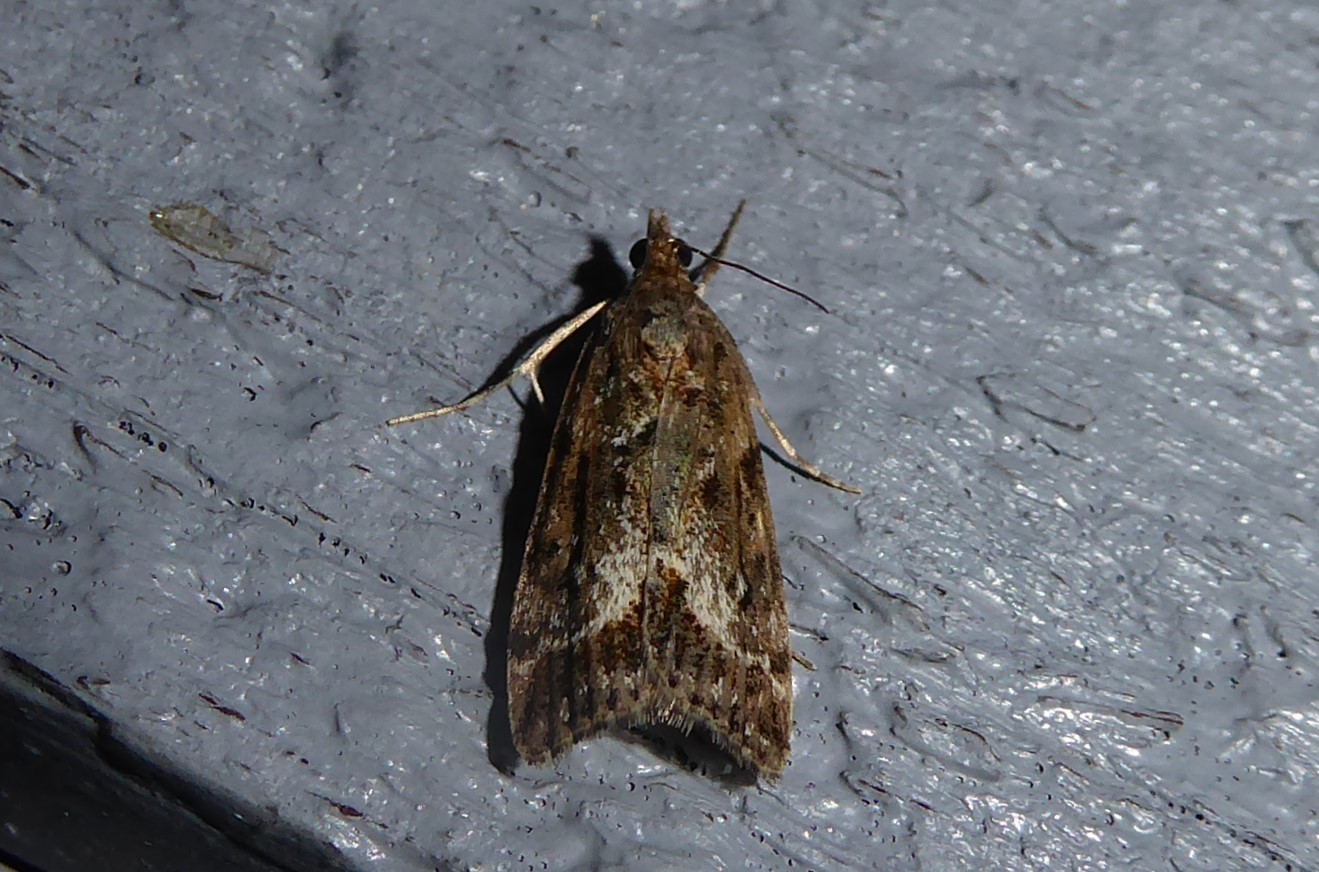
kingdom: Animalia
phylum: Arthropoda
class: Insecta
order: Lepidoptera
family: Crambidae
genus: Eudonia
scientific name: Eudonia legnota
